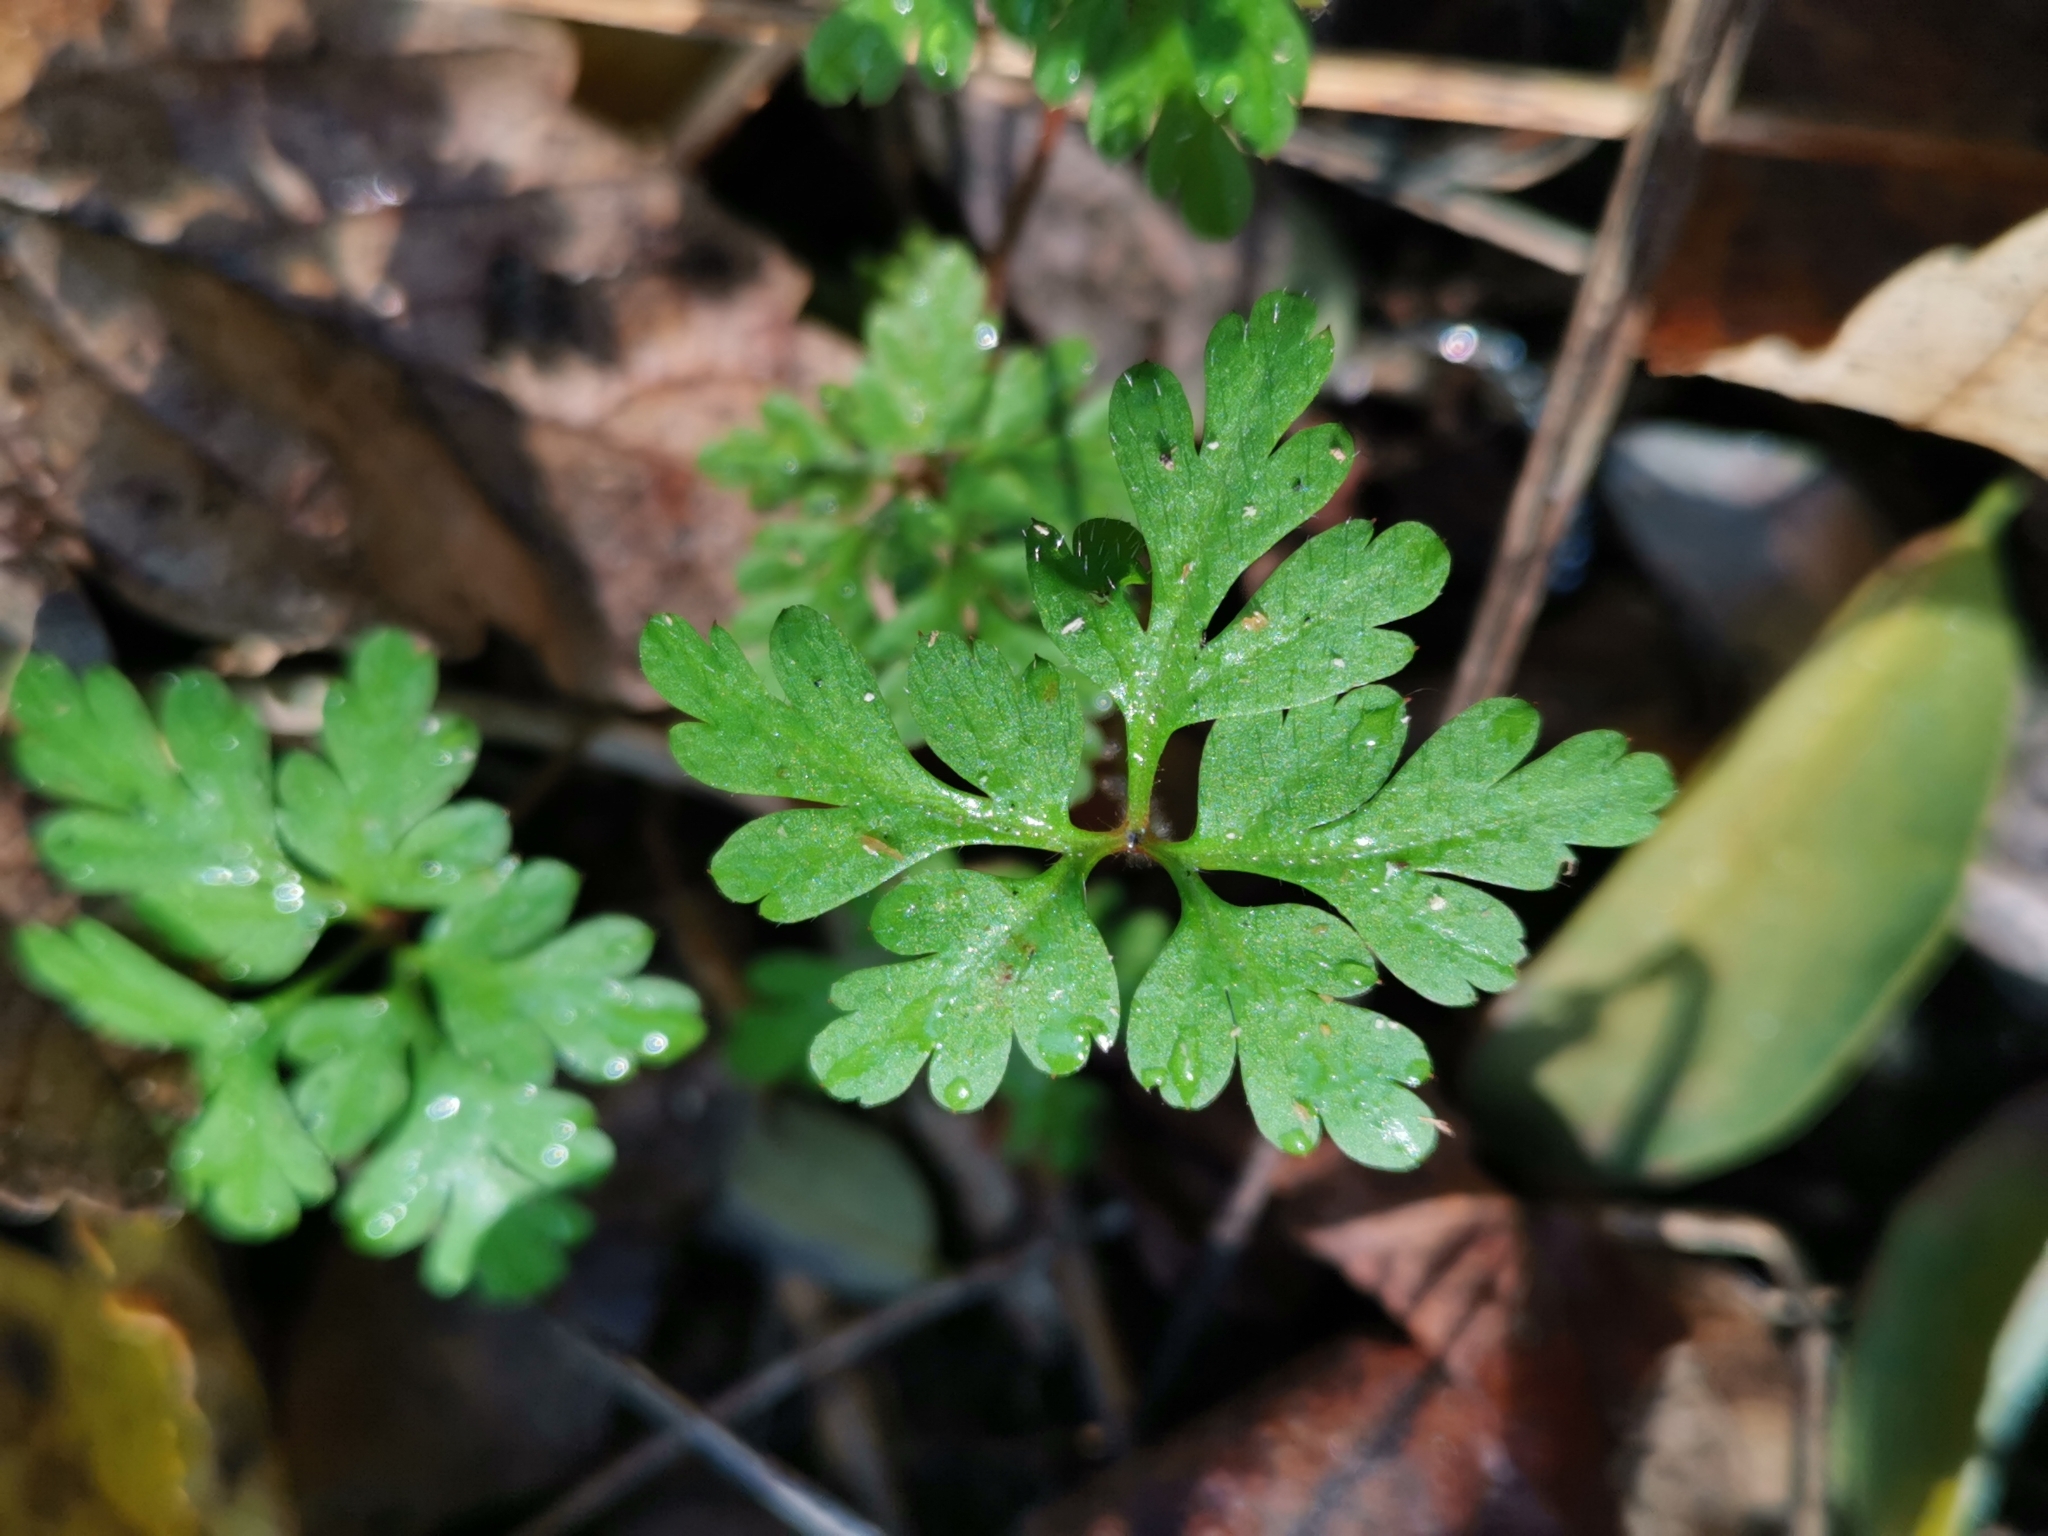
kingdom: Plantae
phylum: Tracheophyta
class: Magnoliopsida
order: Geraniales
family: Geraniaceae
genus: Geranium
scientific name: Geranium robertianum
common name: Herb-robert
